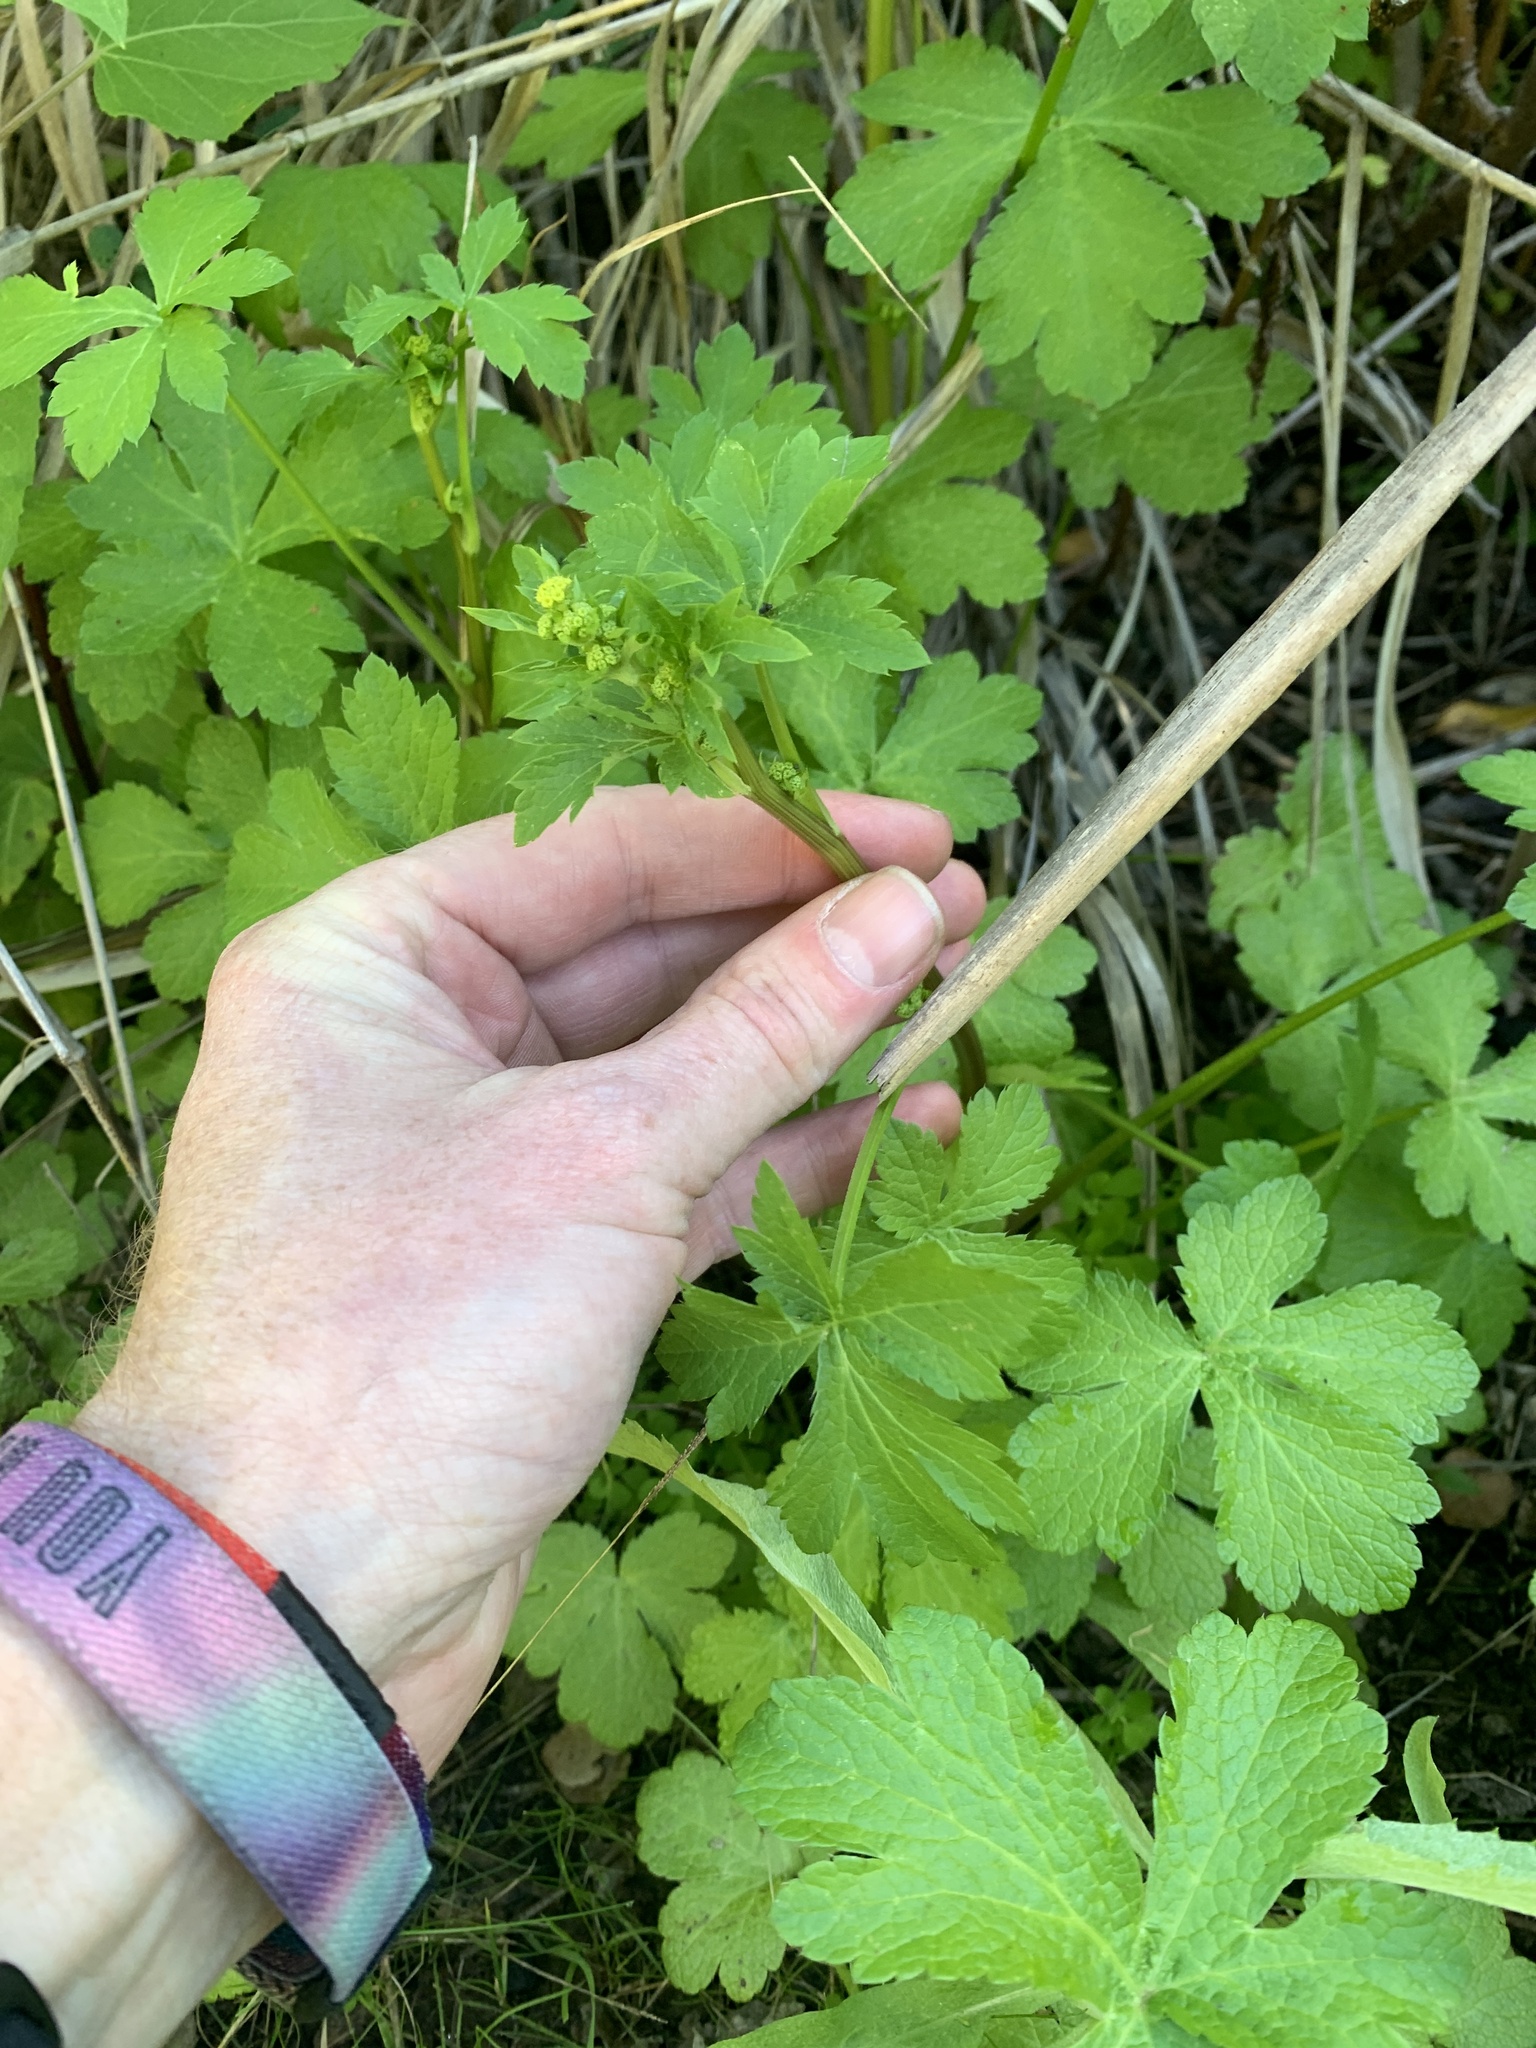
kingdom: Plantae
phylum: Tracheophyta
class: Magnoliopsida
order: Apiales
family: Apiaceae
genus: Sanicula
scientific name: Sanicula crassicaulis
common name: Western snakeroot
